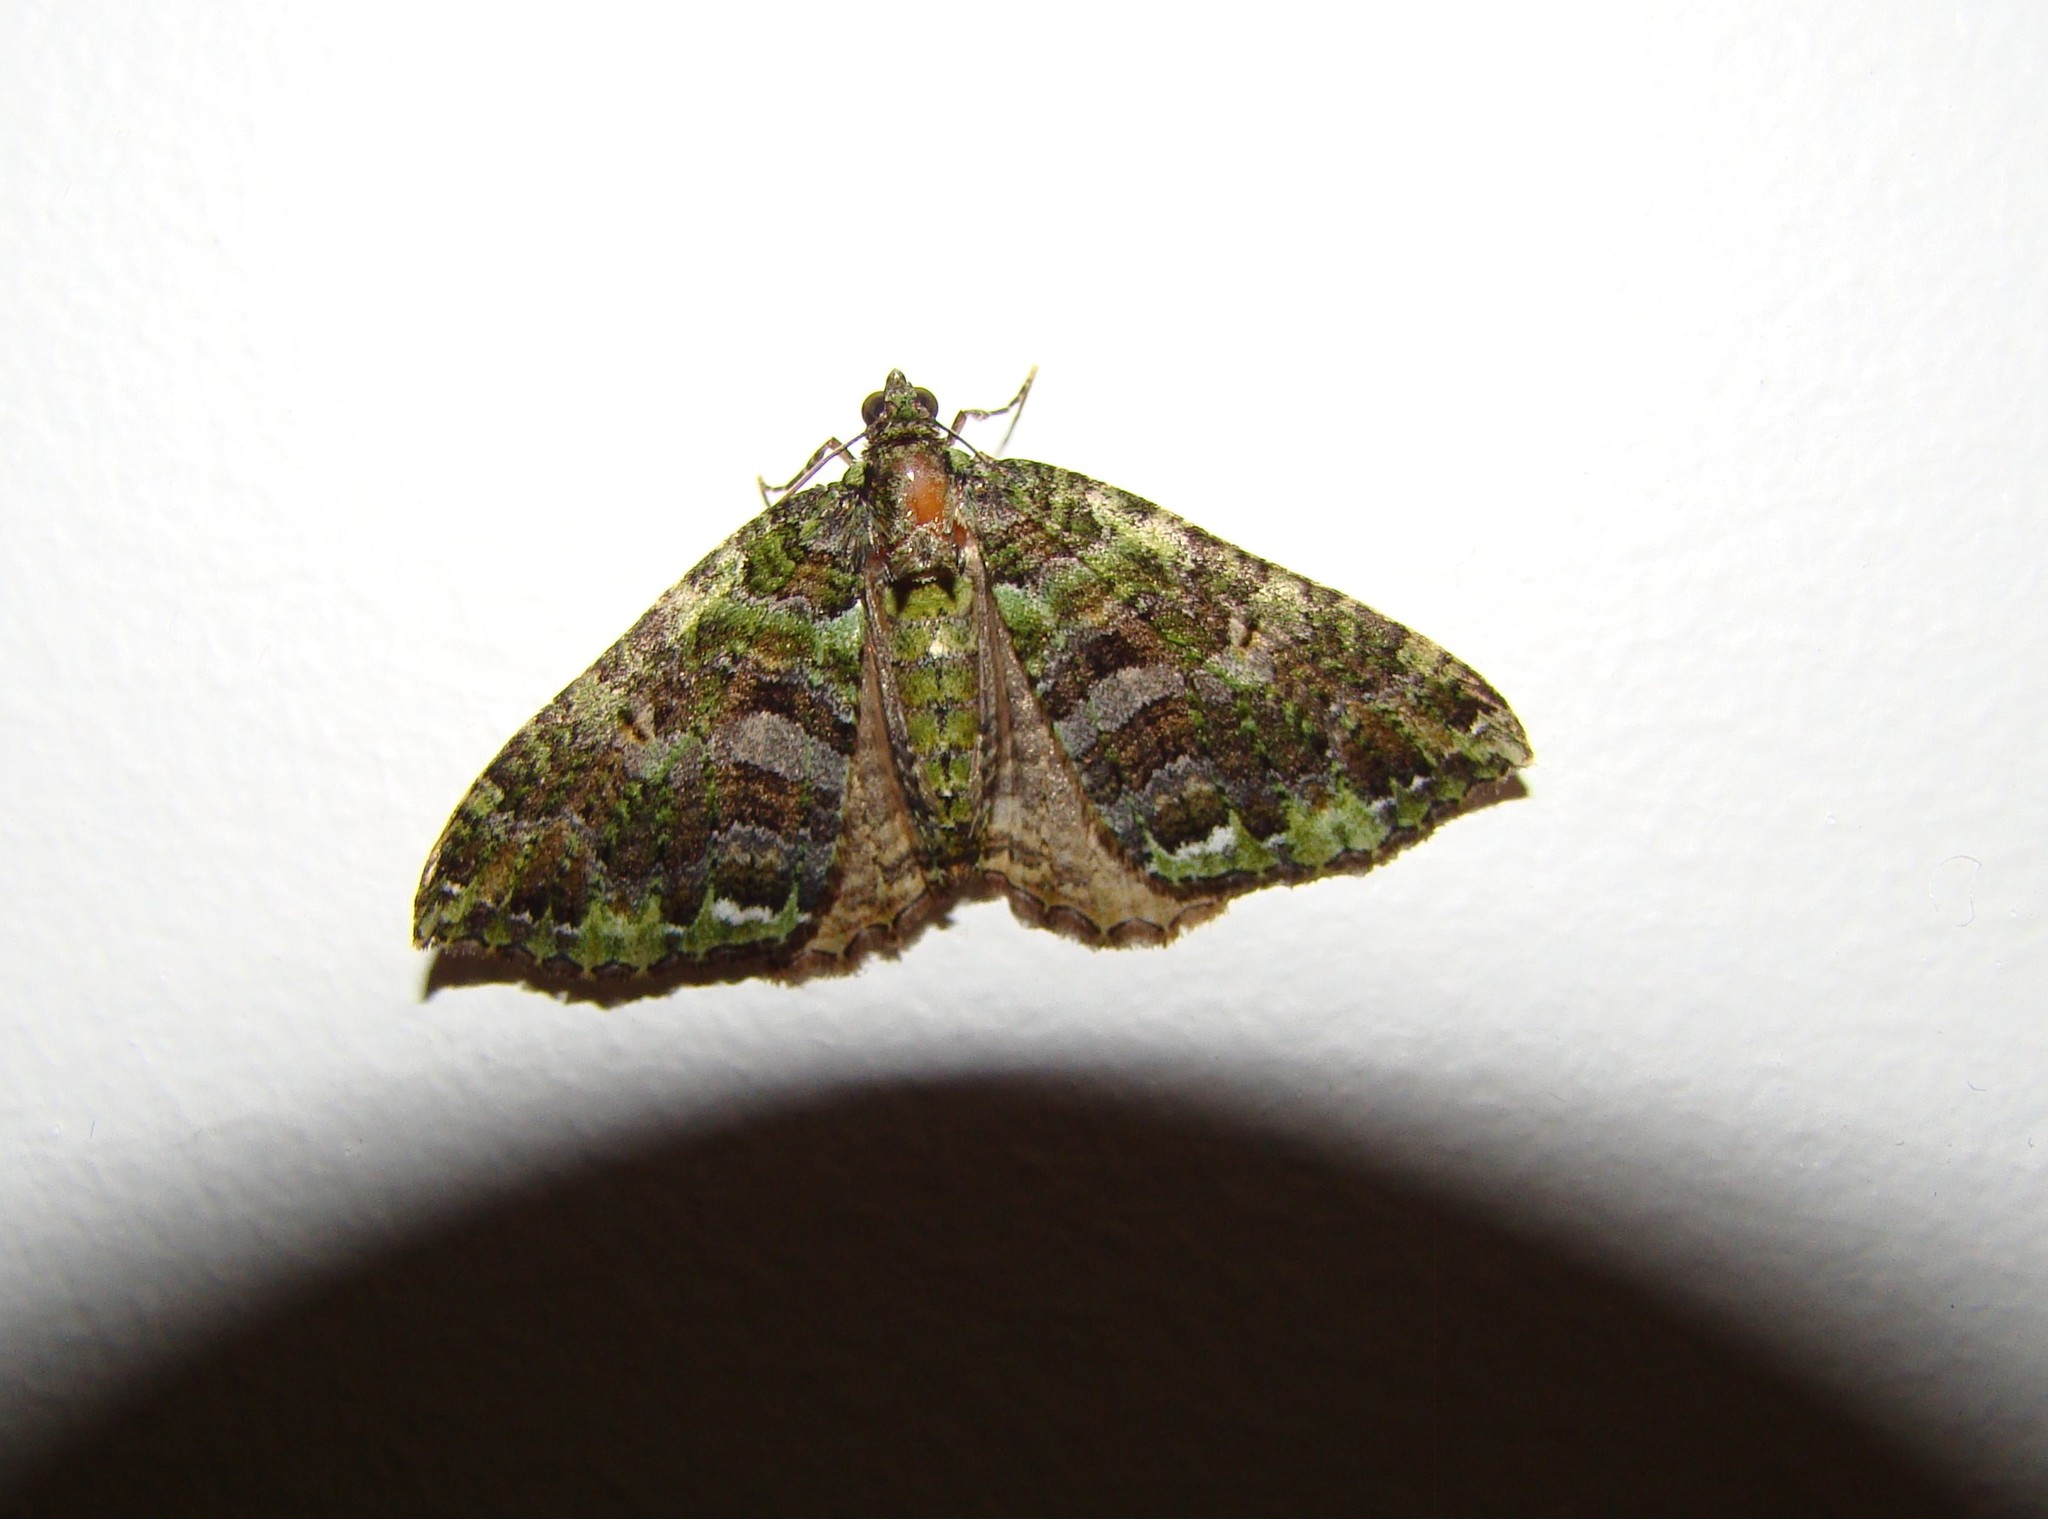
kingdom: Animalia
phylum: Arthropoda
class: Insecta
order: Lepidoptera
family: Geometridae
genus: Austrocidaria
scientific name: Austrocidaria similata
